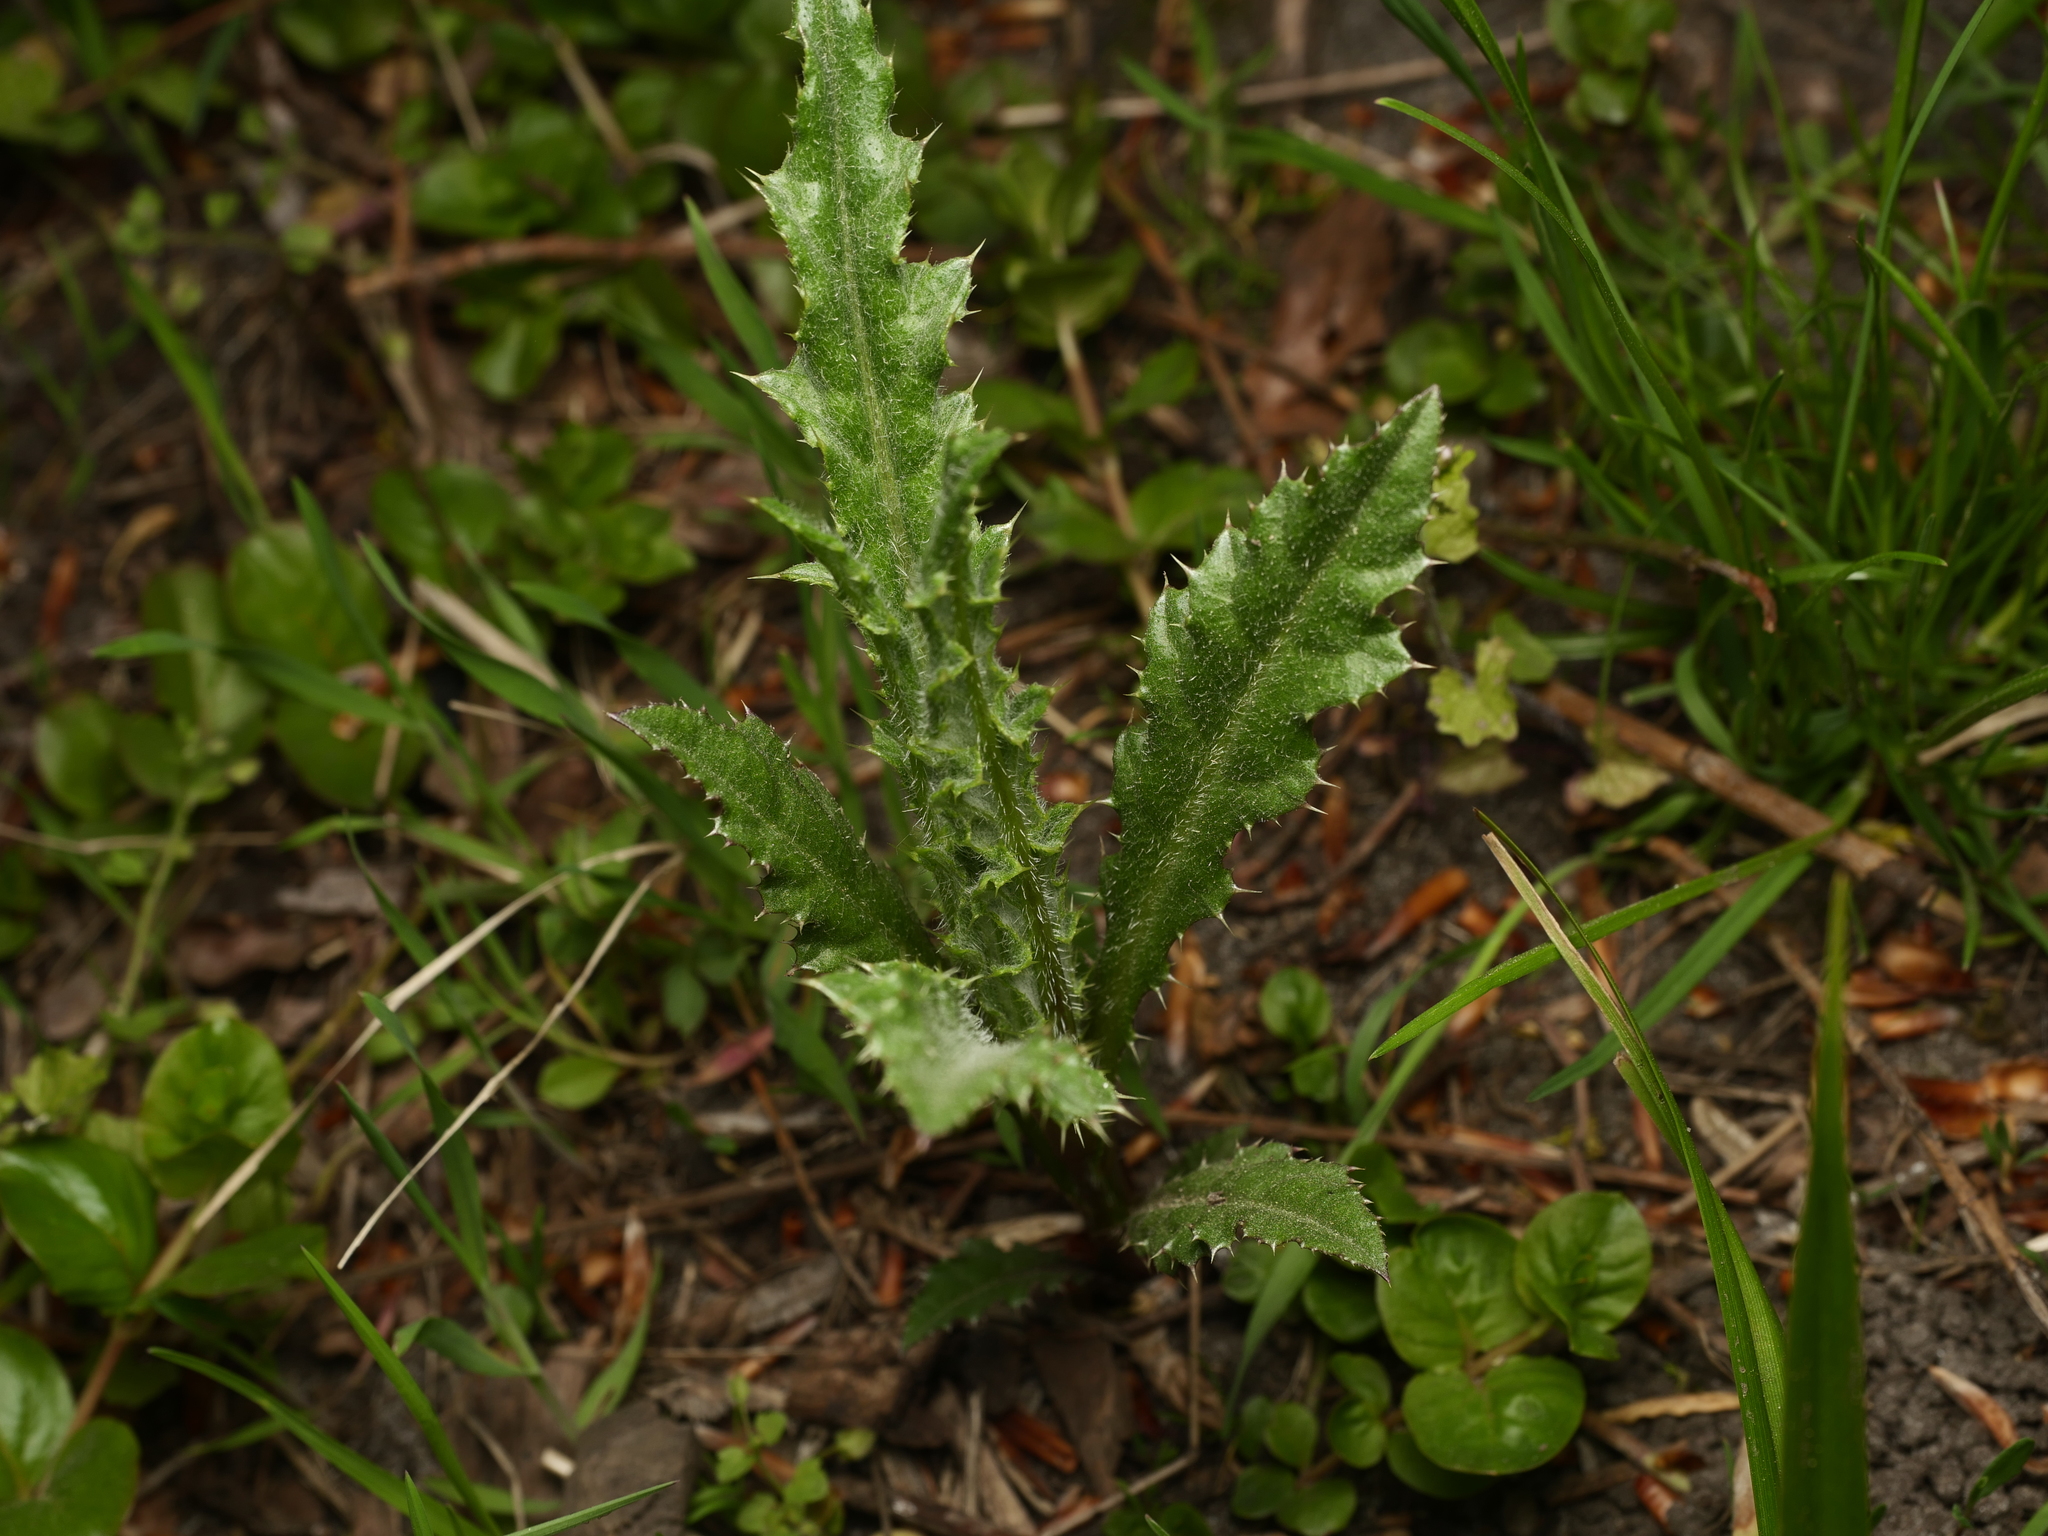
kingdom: Plantae
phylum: Tracheophyta
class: Magnoliopsida
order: Asterales
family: Asteraceae
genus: Cirsium
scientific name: Cirsium arvense
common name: Creeping thistle
